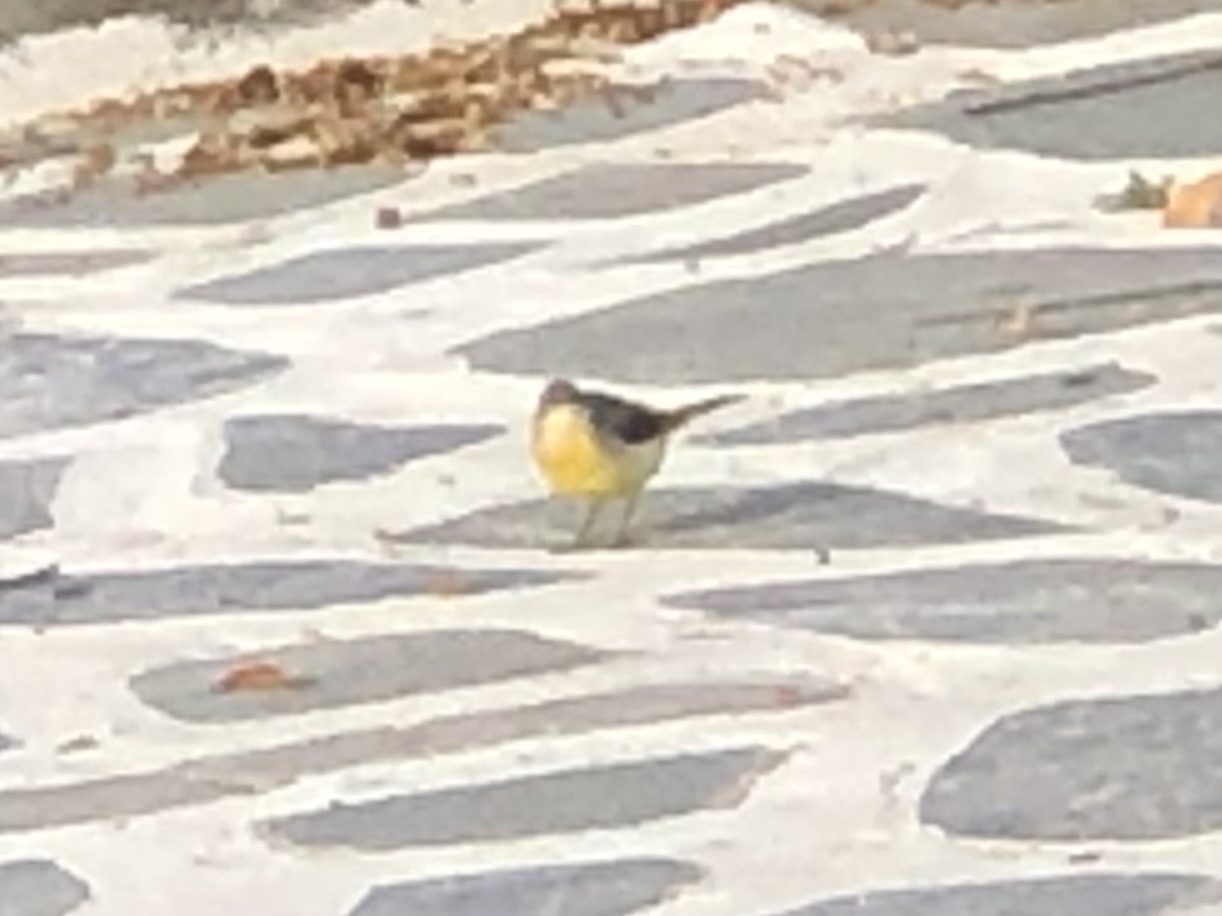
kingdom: Animalia
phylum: Chordata
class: Aves
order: Passeriformes
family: Motacillidae
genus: Motacilla
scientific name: Motacilla cinerea
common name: Grey wagtail
